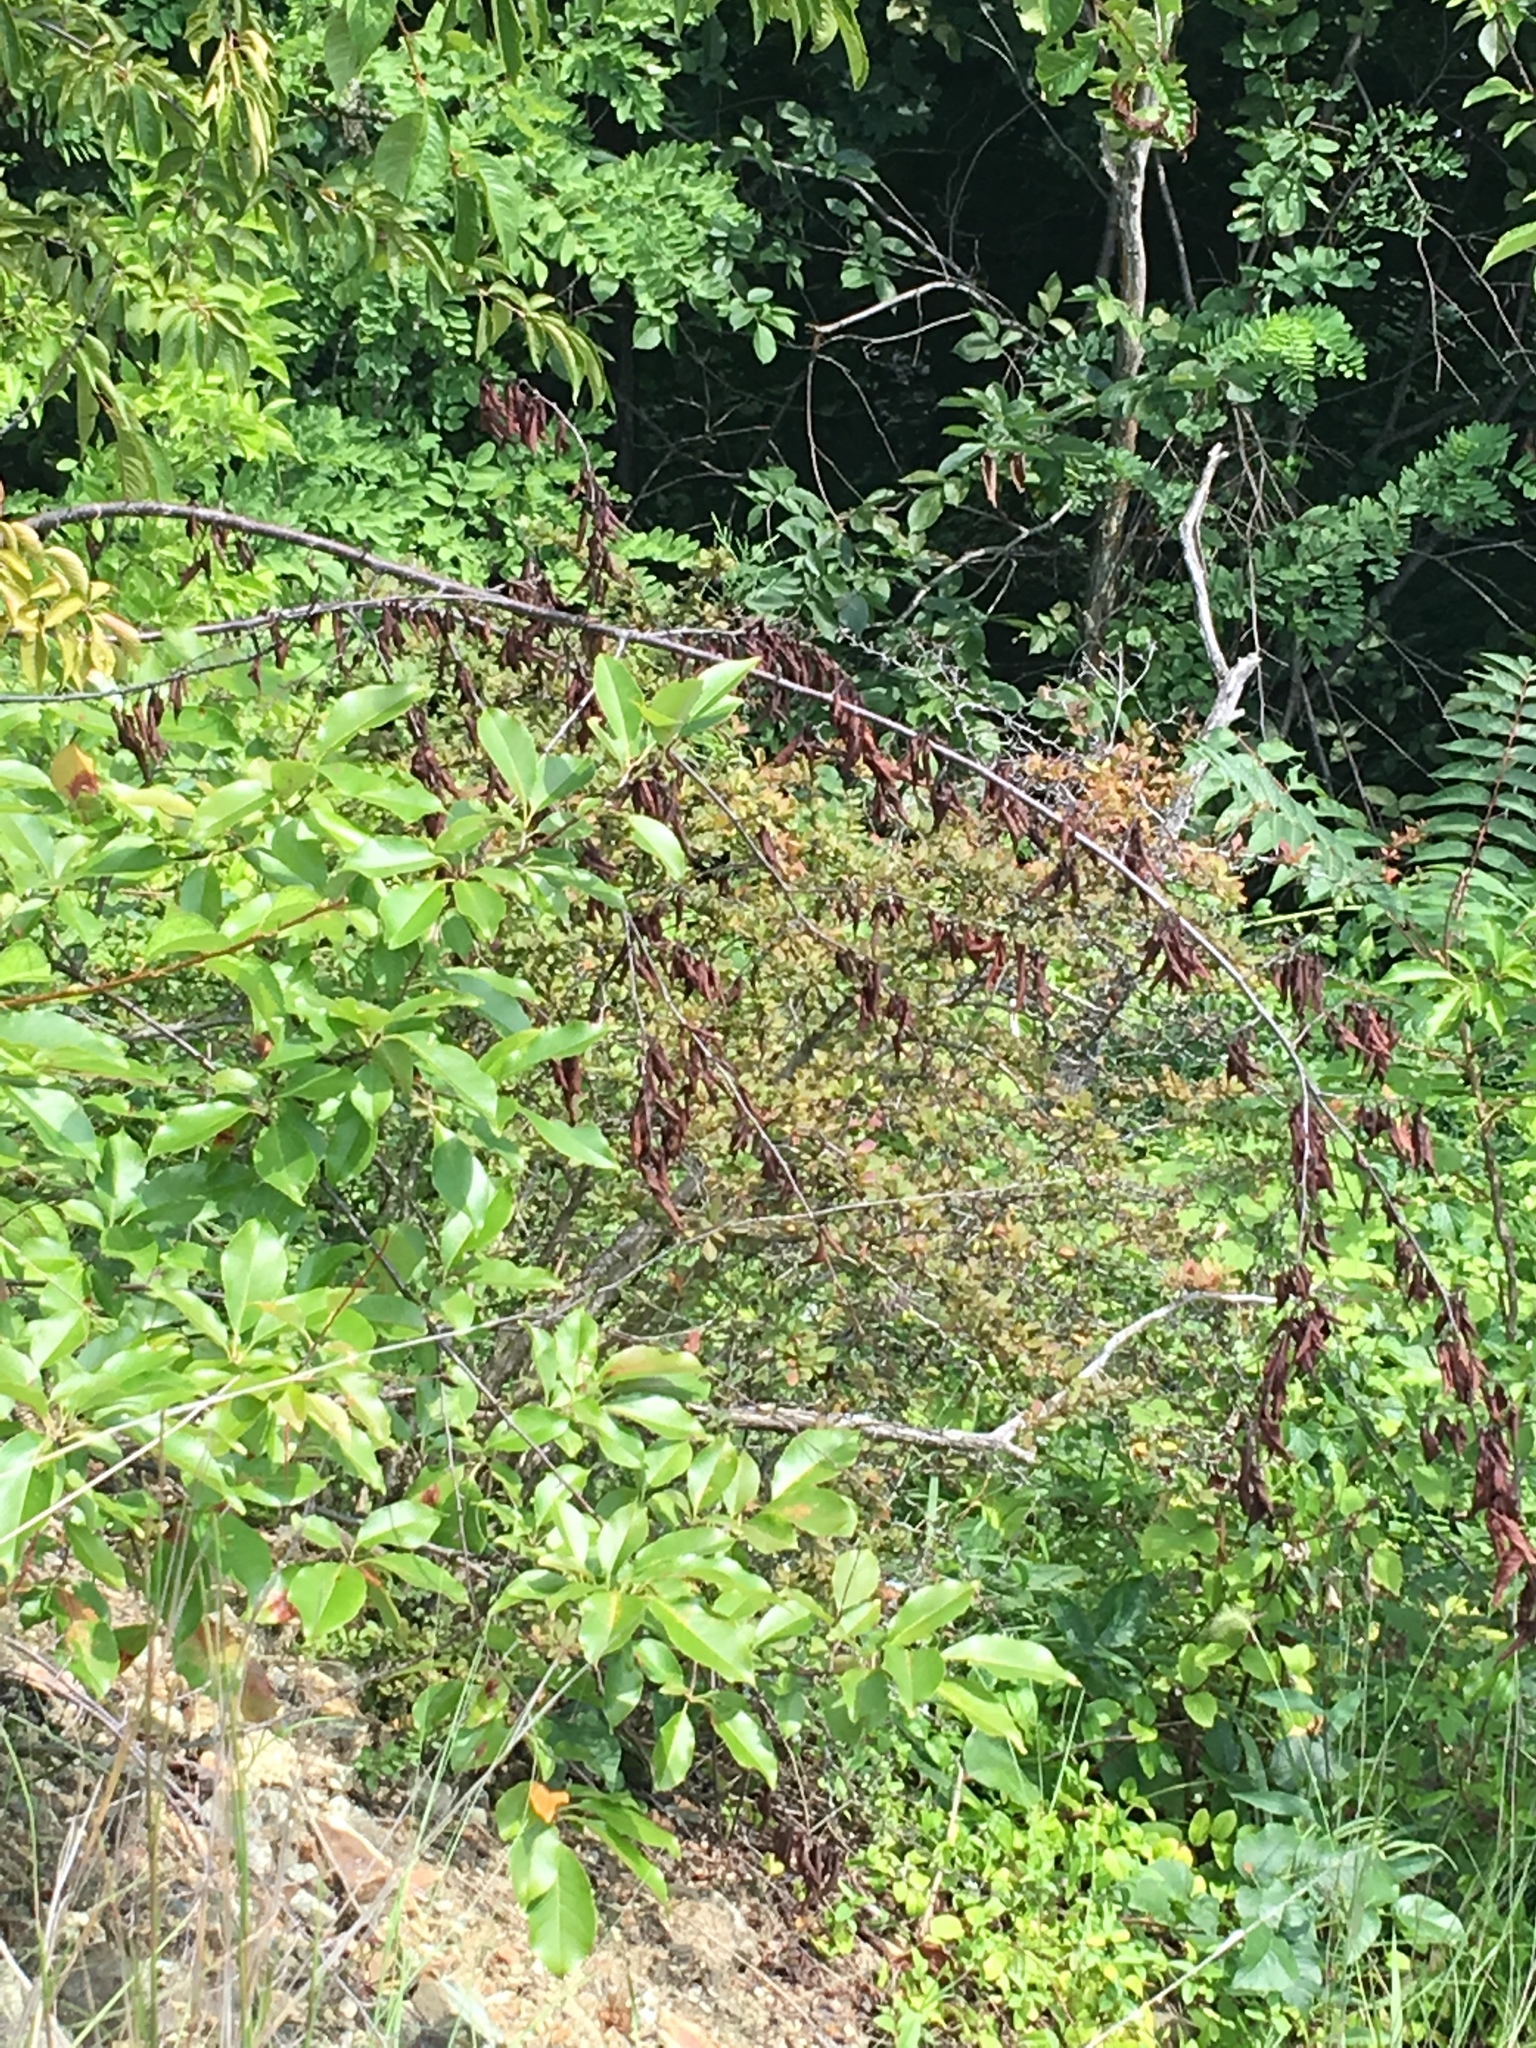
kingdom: Plantae
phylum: Tracheophyta
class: Magnoliopsida
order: Rosales
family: Rosaceae
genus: Prunus
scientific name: Prunus serotina
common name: Black cherry
